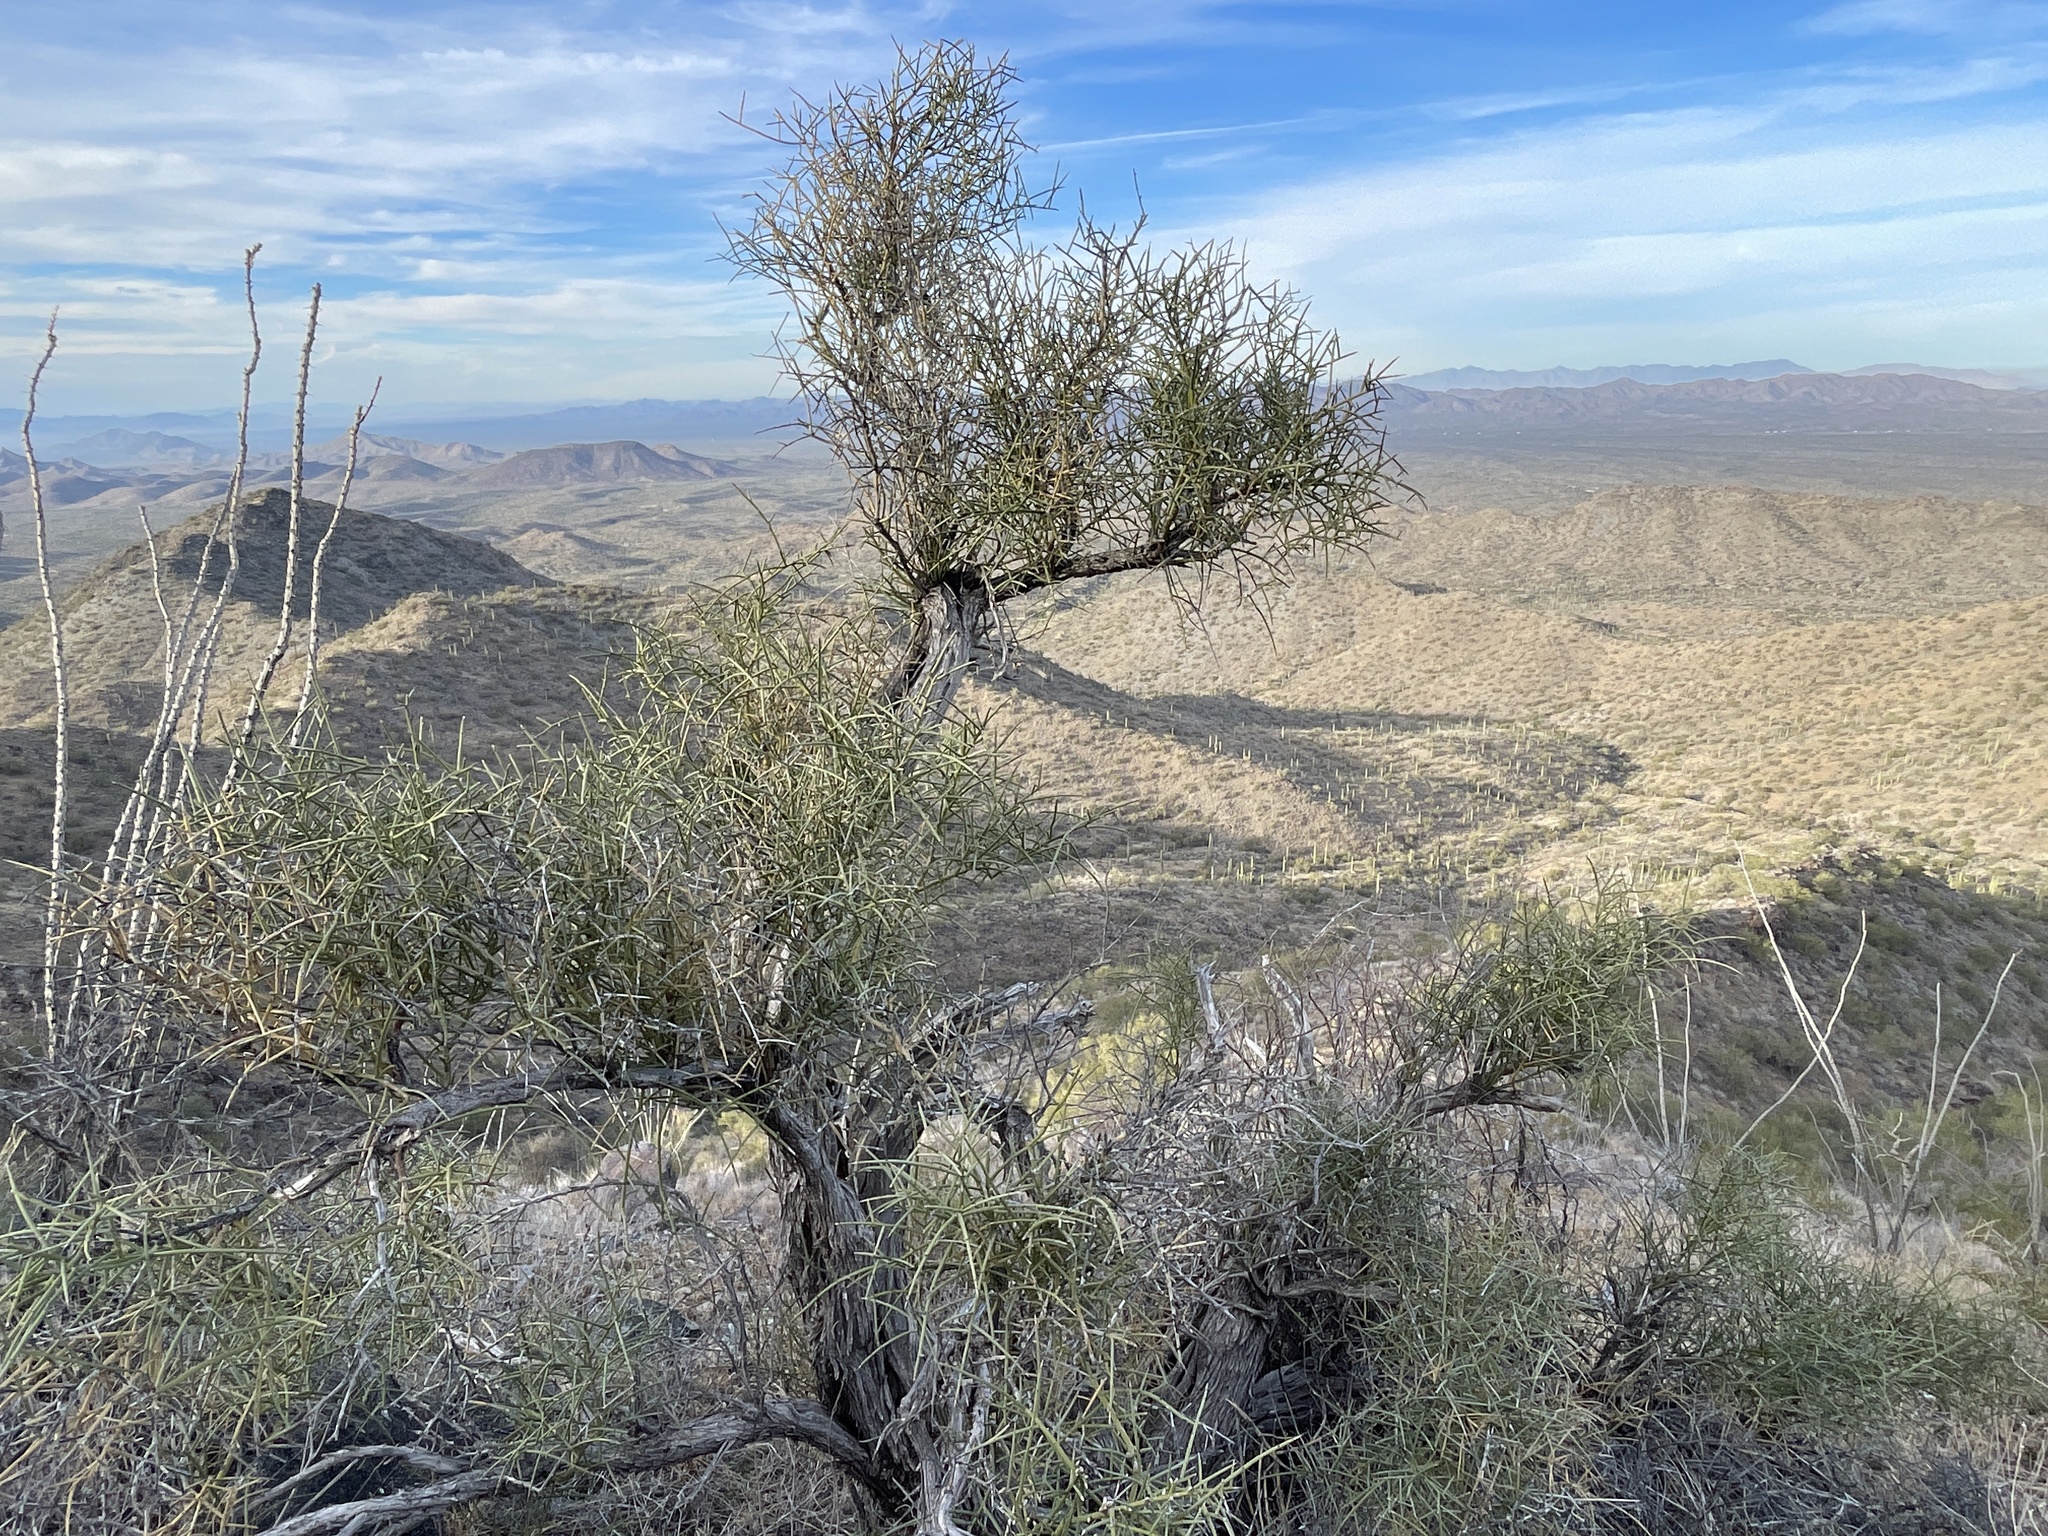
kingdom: Plantae
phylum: Tracheophyta
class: Magnoliopsida
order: Celastrales
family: Celastraceae
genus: Canotia
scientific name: Canotia holacantha
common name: Crucifixion thorns
